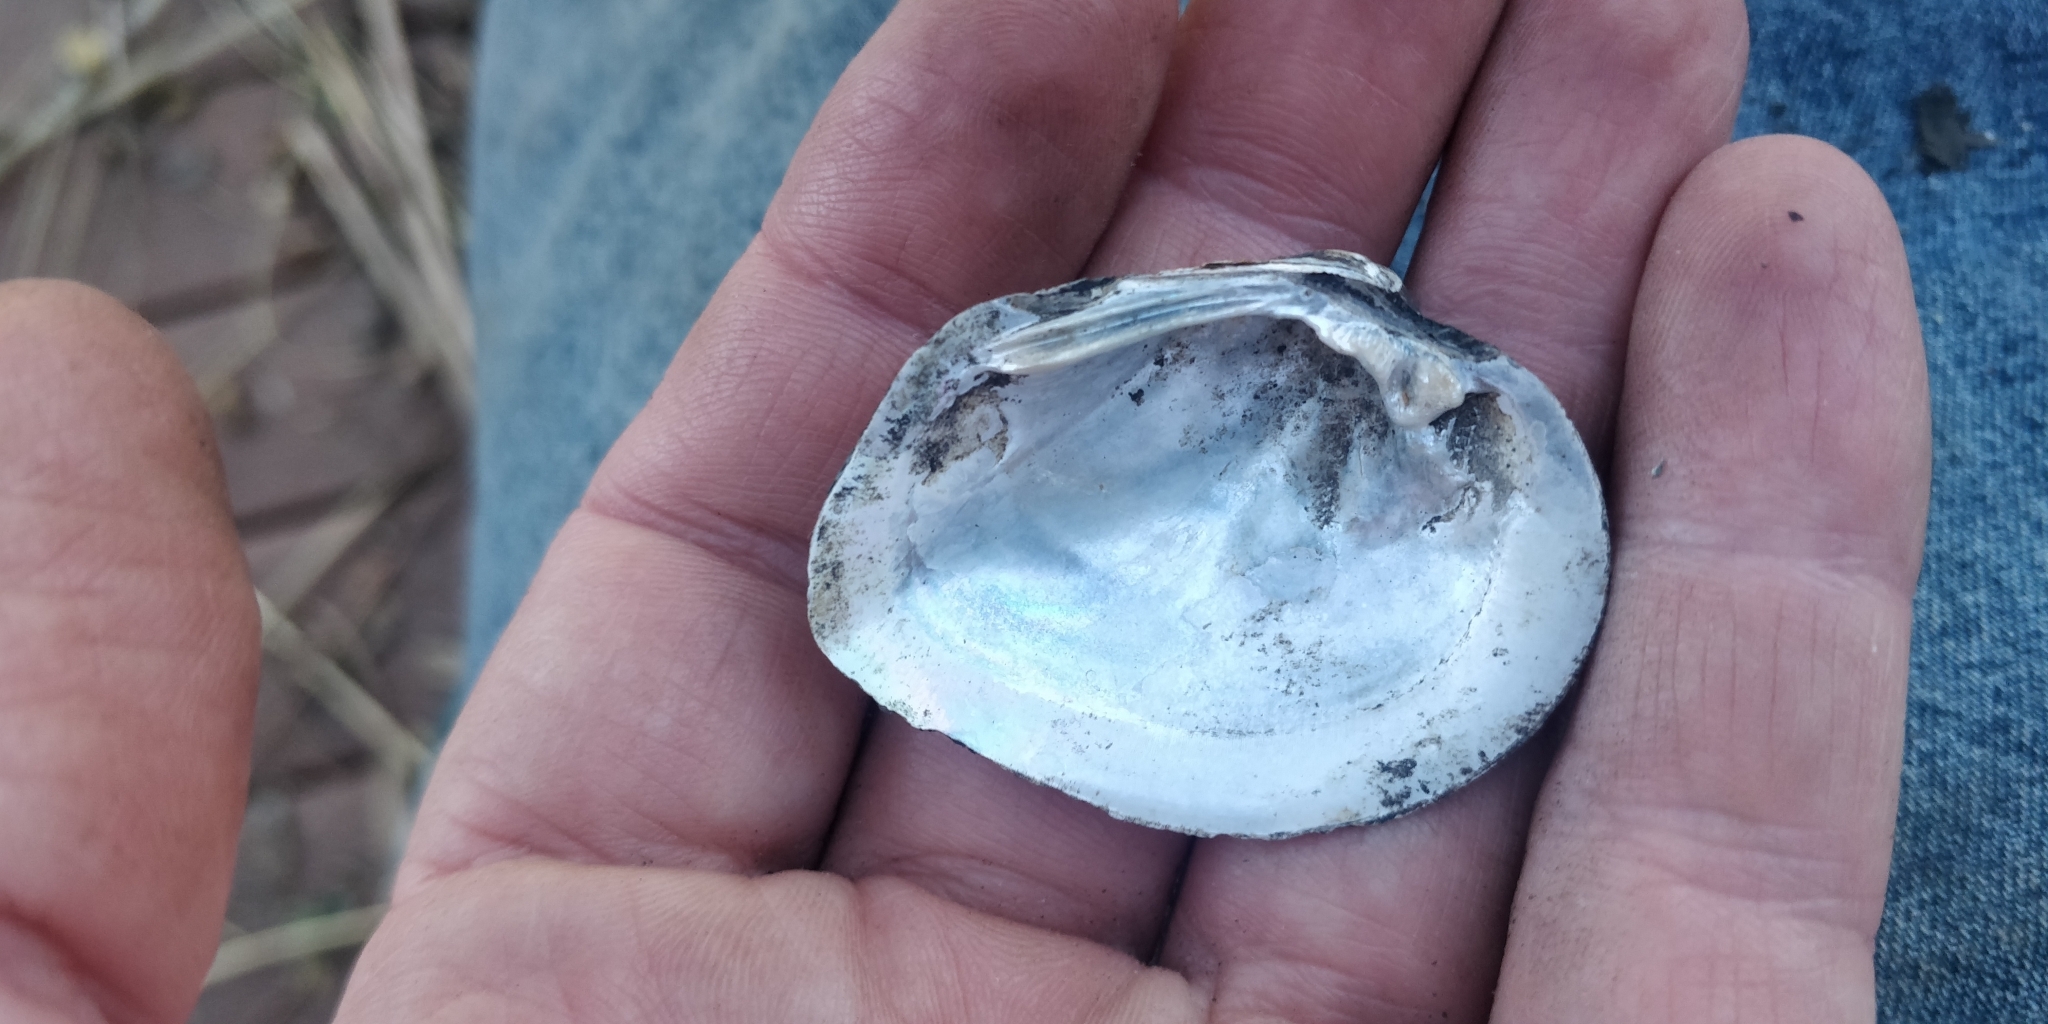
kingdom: Animalia
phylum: Mollusca
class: Bivalvia
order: Unionida
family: Unionidae
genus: Fusconaia
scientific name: Fusconaia flava
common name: Wabash pigtoe
